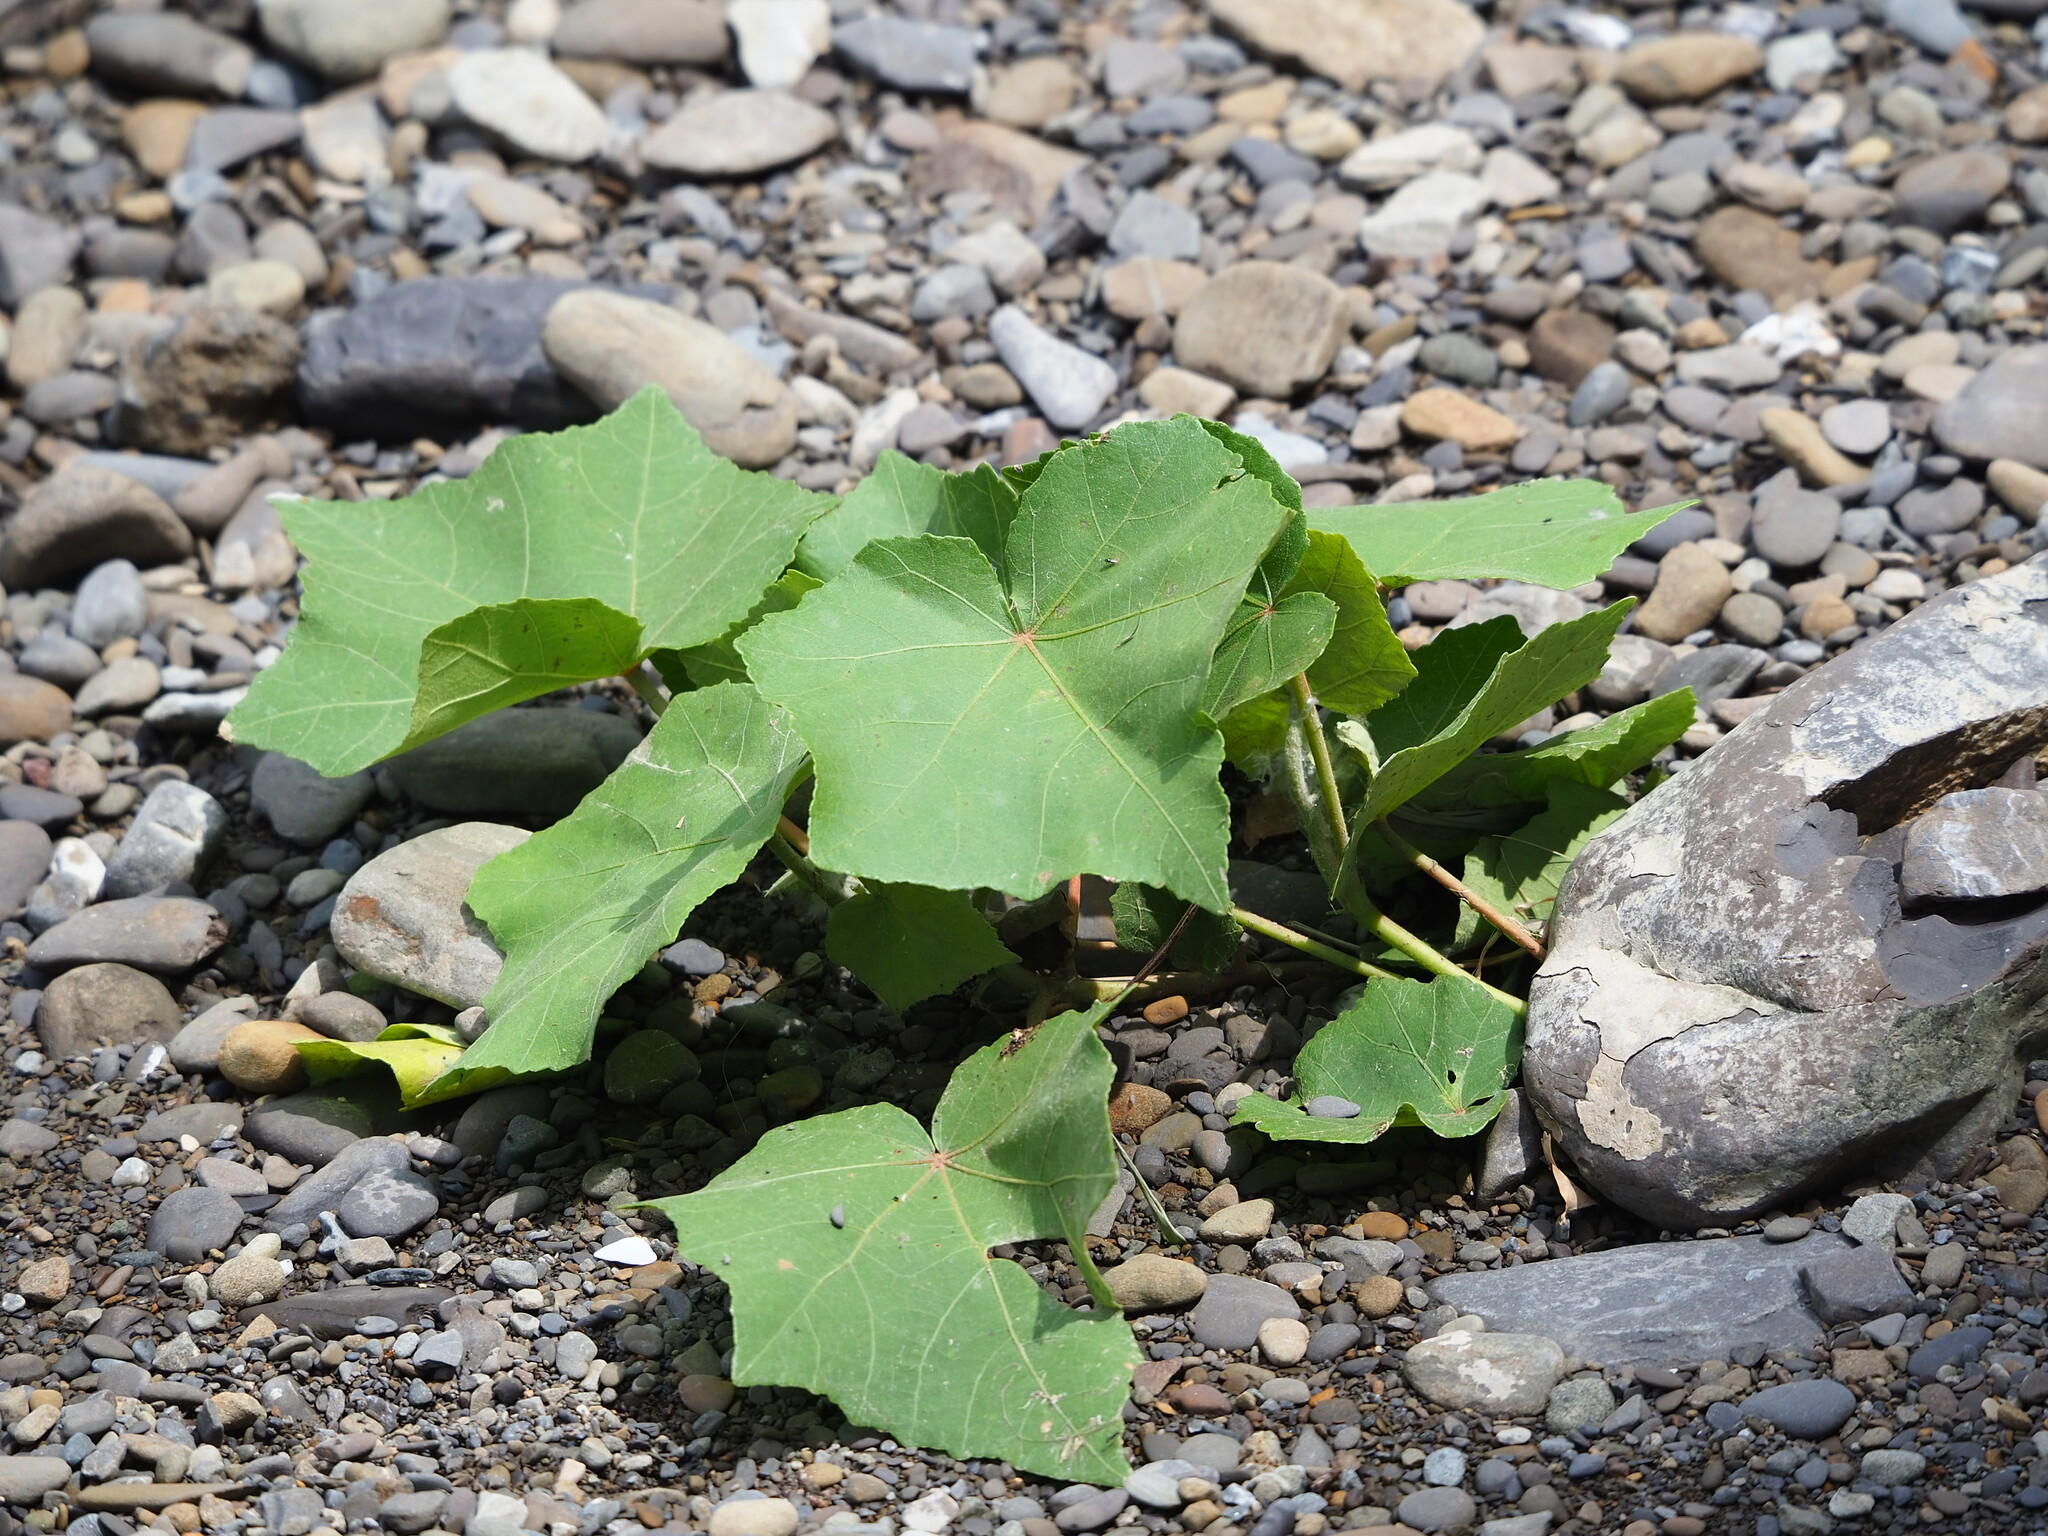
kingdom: Plantae
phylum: Tracheophyta
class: Magnoliopsida
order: Malvales
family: Malvaceae
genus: Hibiscus
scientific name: Hibiscus taiwanensis
